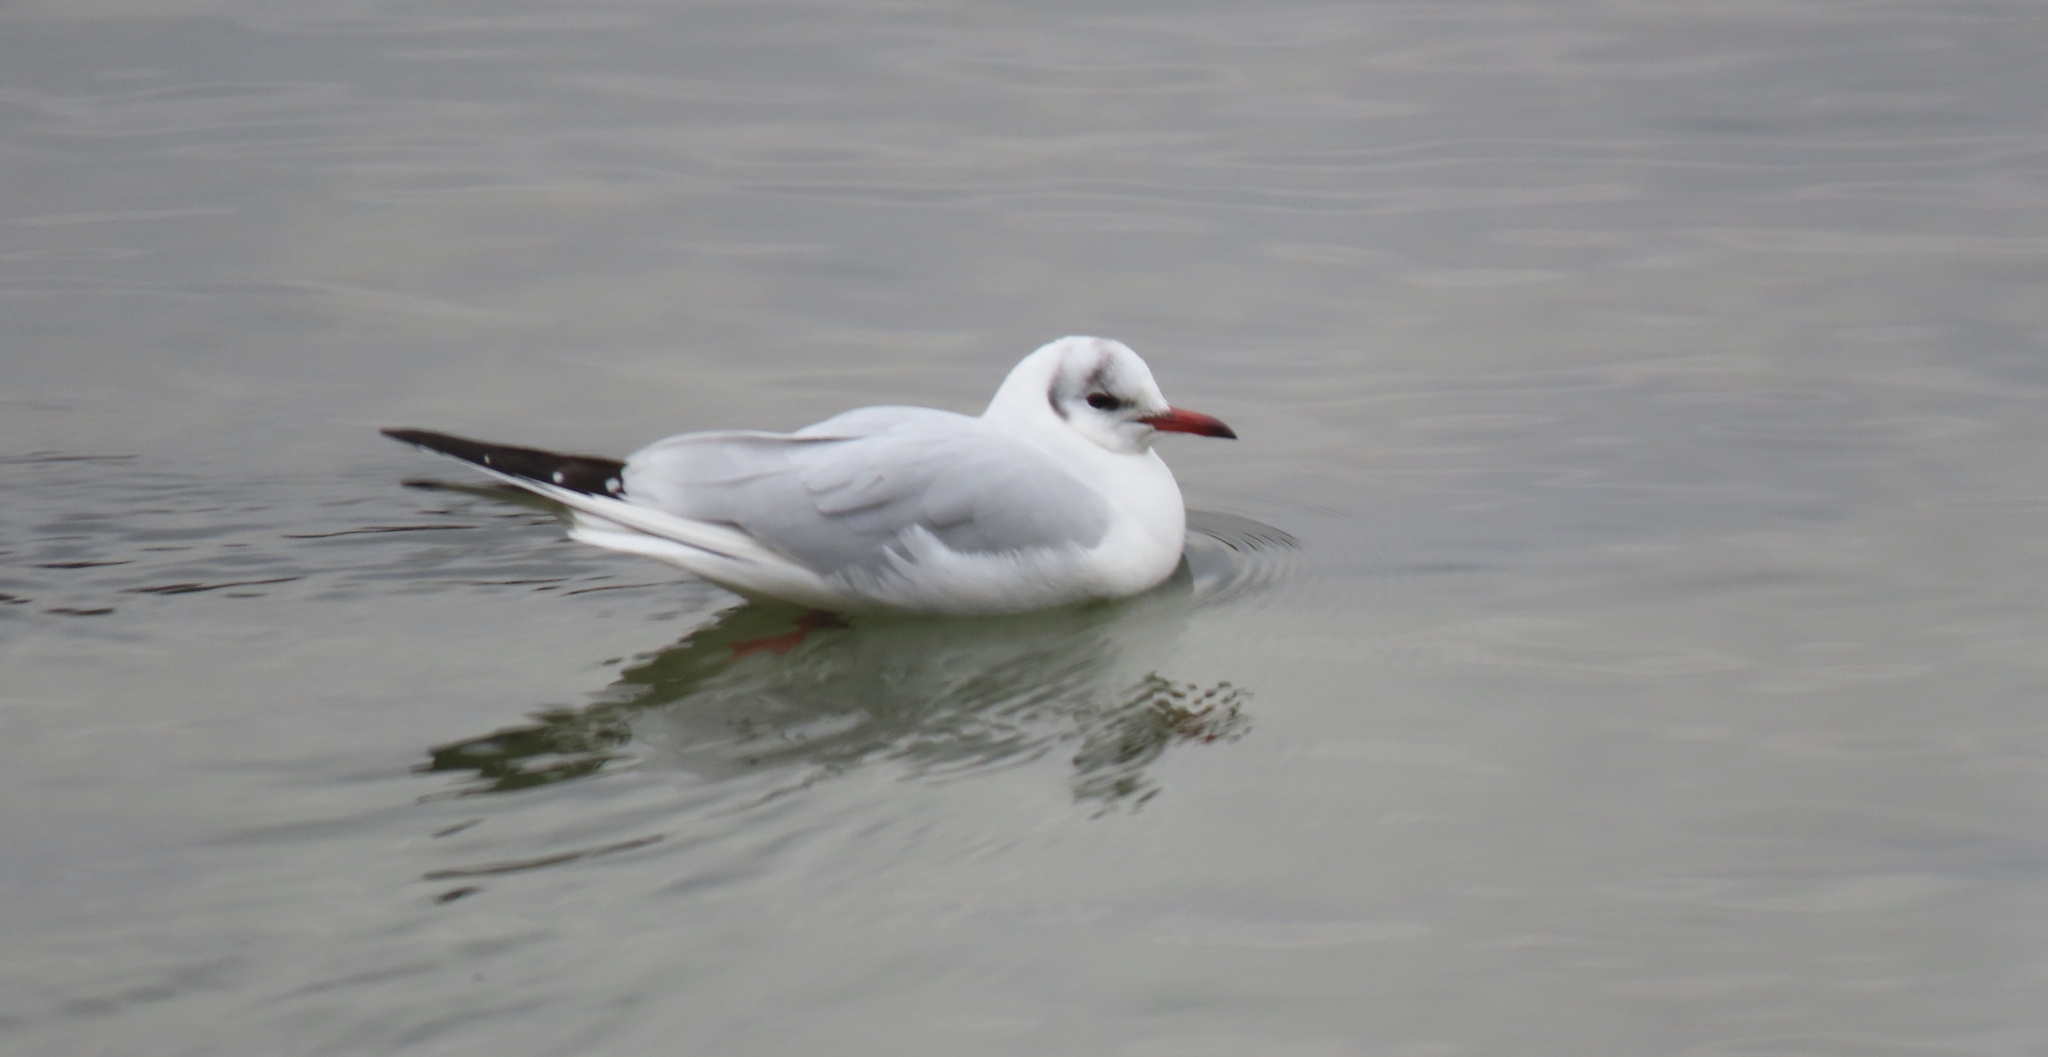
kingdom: Animalia
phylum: Chordata
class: Aves
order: Charadriiformes
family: Laridae
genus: Chroicocephalus
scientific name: Chroicocephalus ridibundus
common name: Black-headed gull
